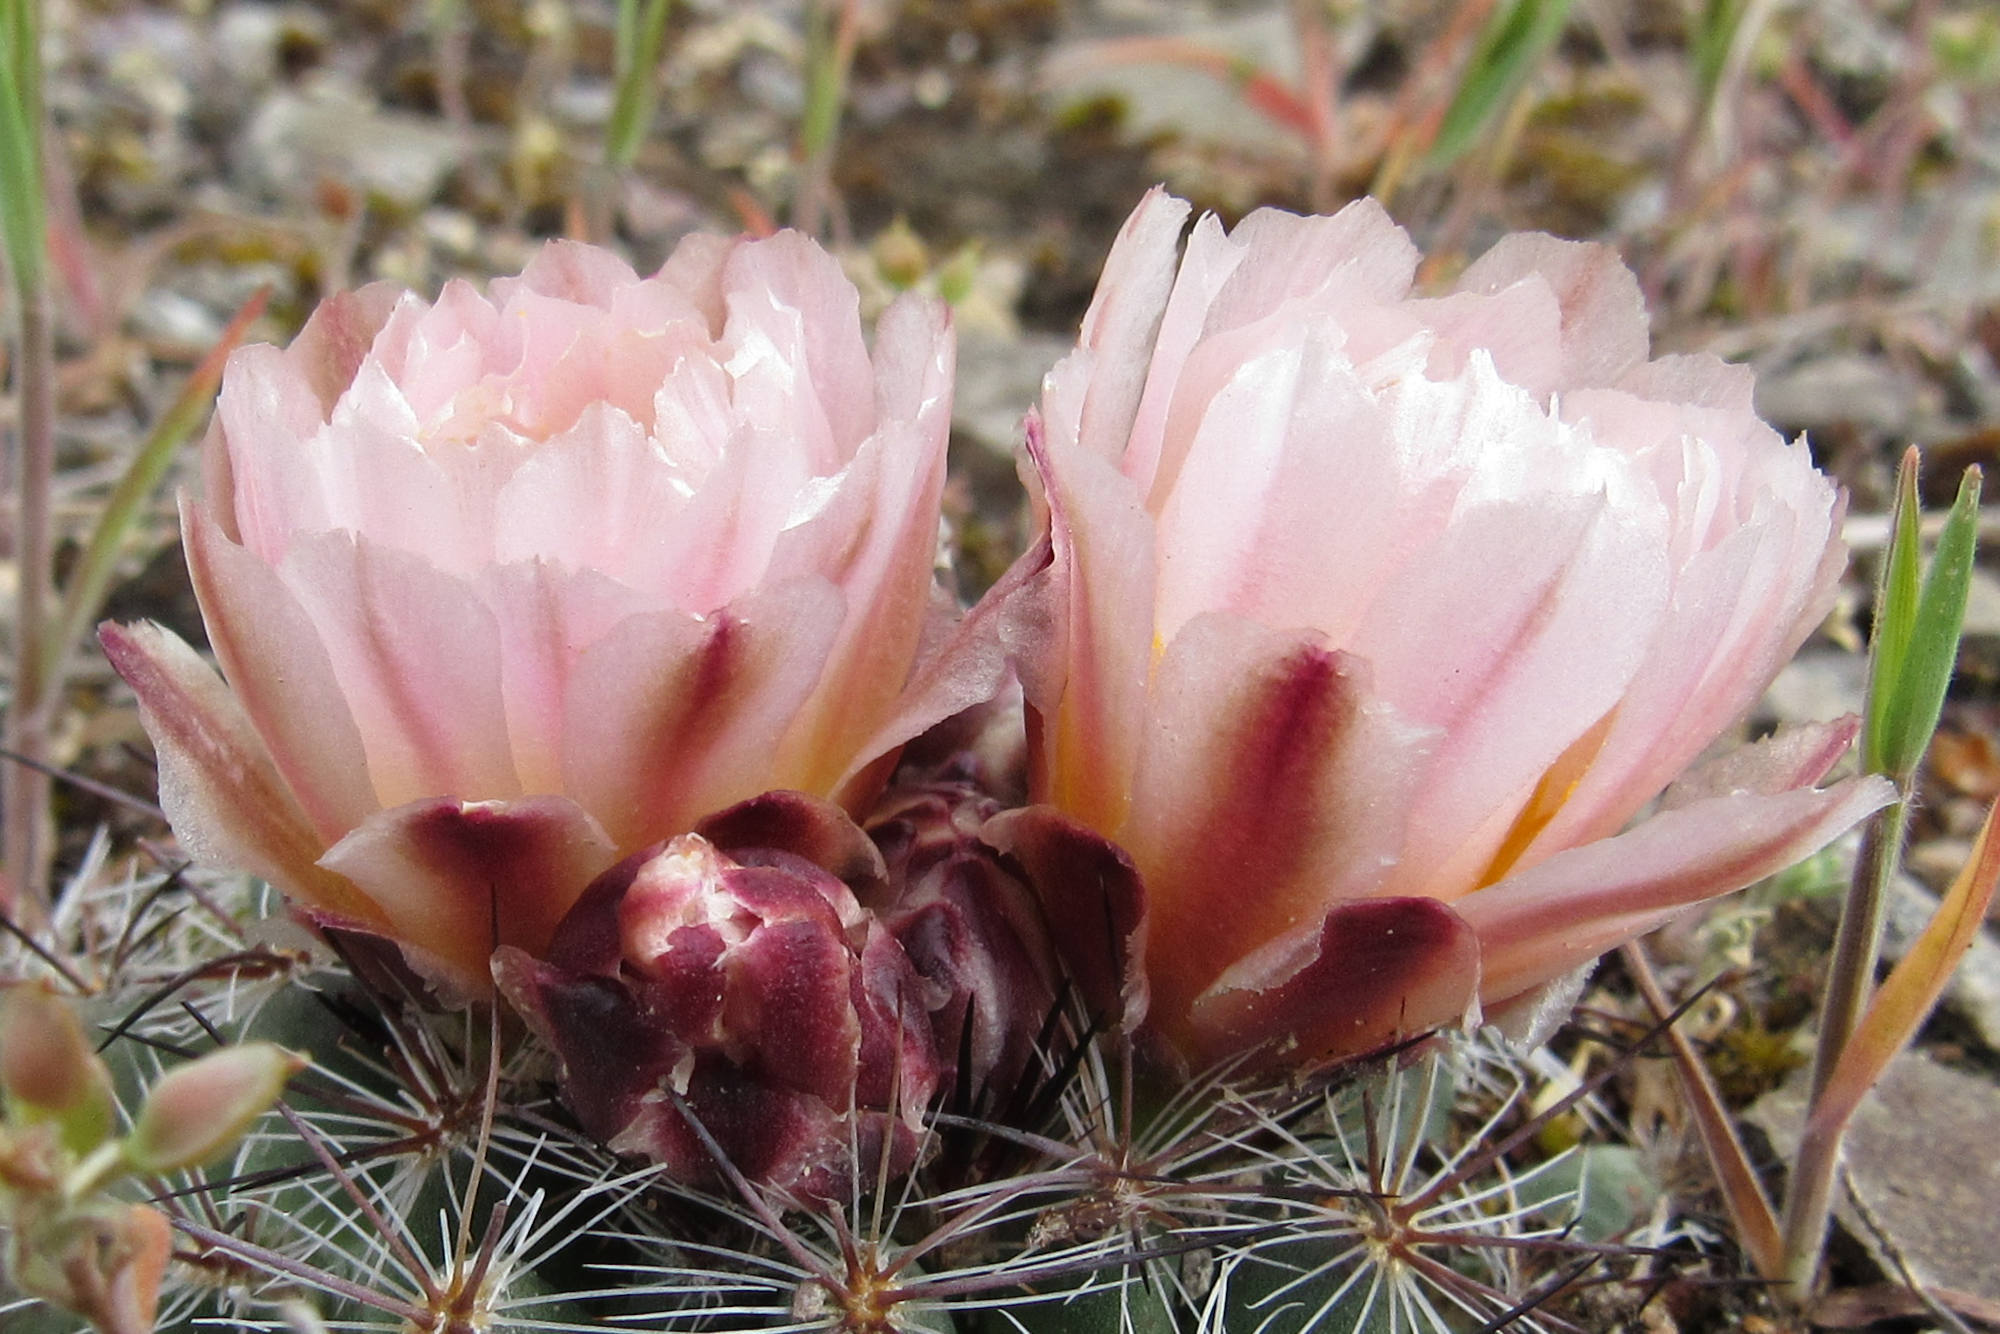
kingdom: Plantae
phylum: Tracheophyta
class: Magnoliopsida
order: Caryophyllales
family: Cactaceae
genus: Pediocactus
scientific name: Pediocactus simpsonii
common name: Simpson's hedgehog cactus
